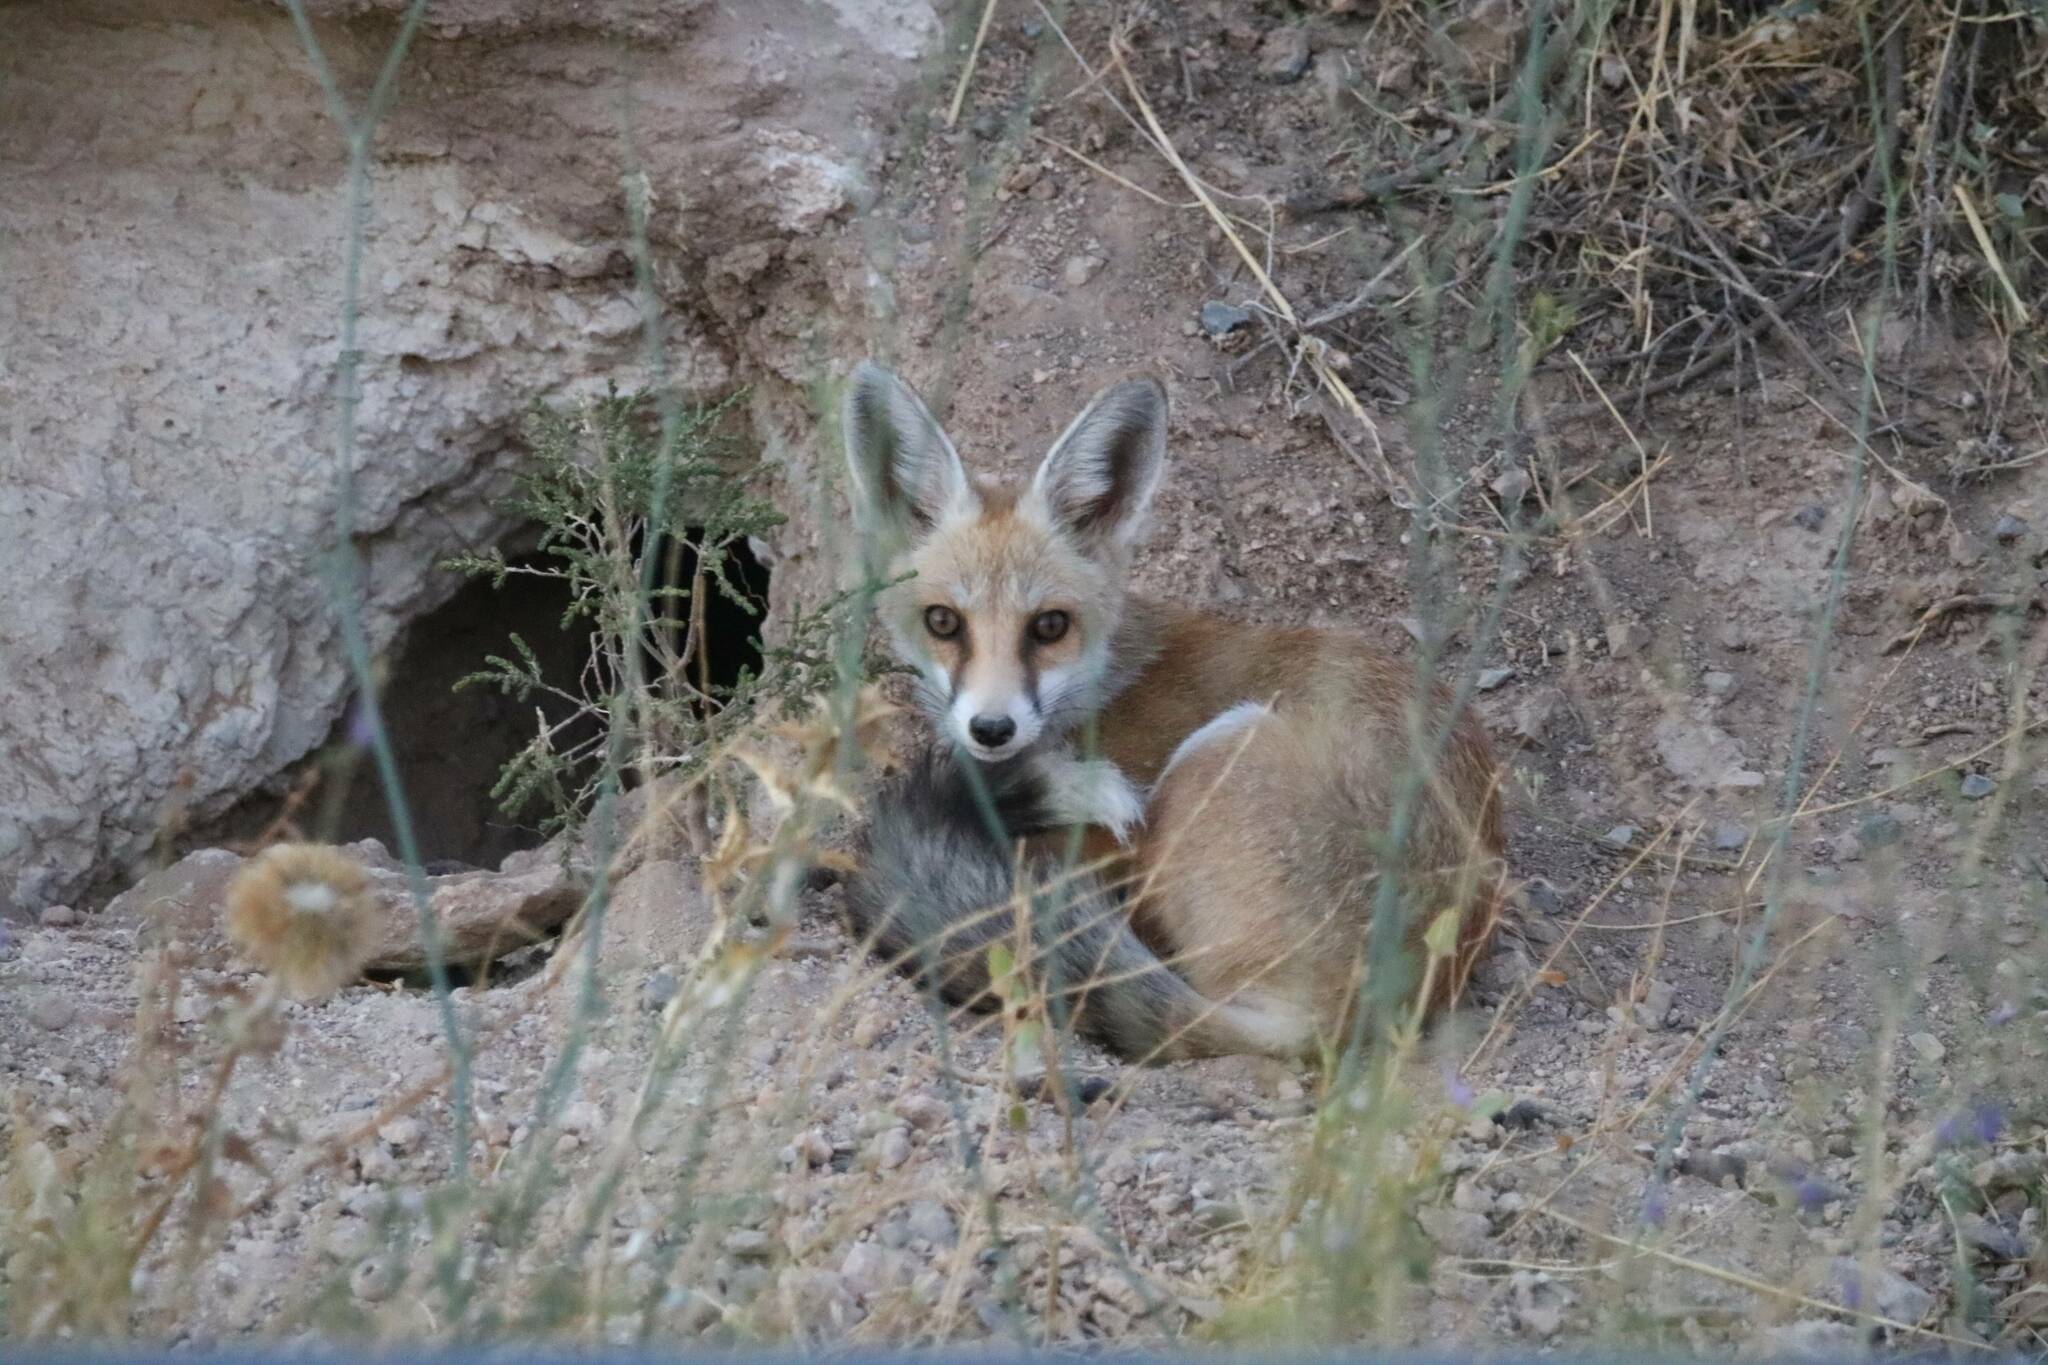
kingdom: Animalia
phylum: Chordata
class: Mammalia
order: Carnivora
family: Canidae
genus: Vulpes
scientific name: Vulpes vulpes
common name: Red fox
